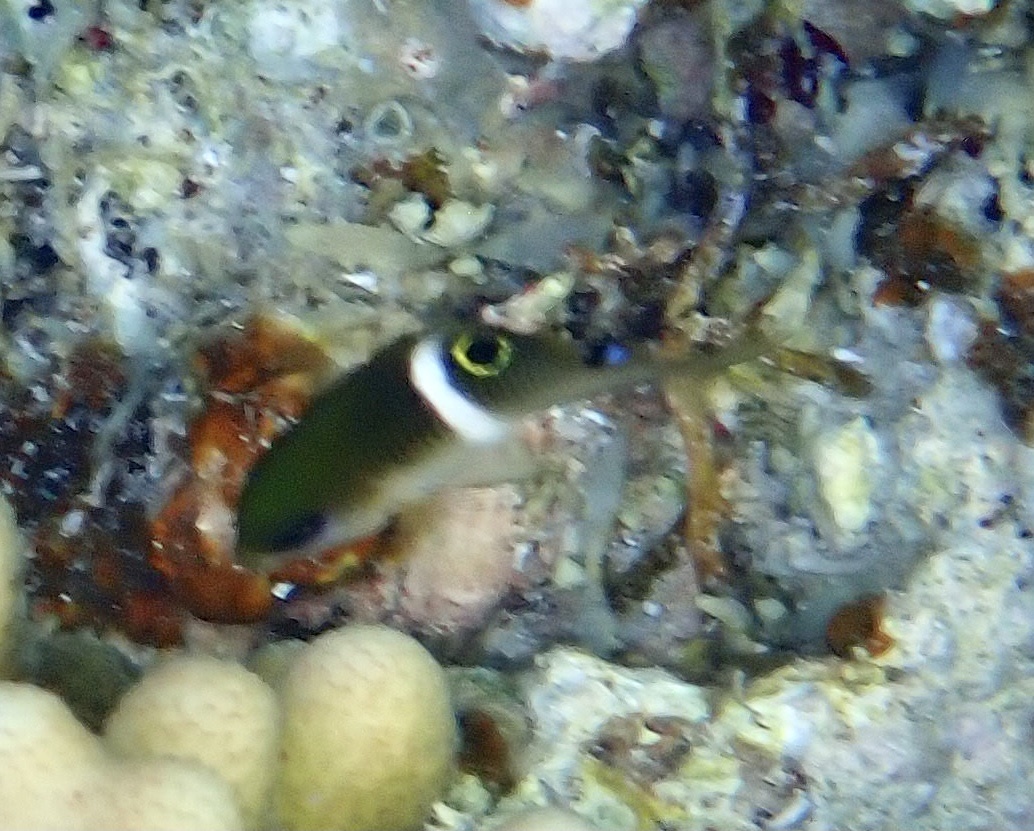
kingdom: Animalia
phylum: Chordata
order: Perciformes
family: Pomacentridae
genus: Plectroglyphidodon
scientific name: Plectroglyphidodon leucozonus
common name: White-band damsel
